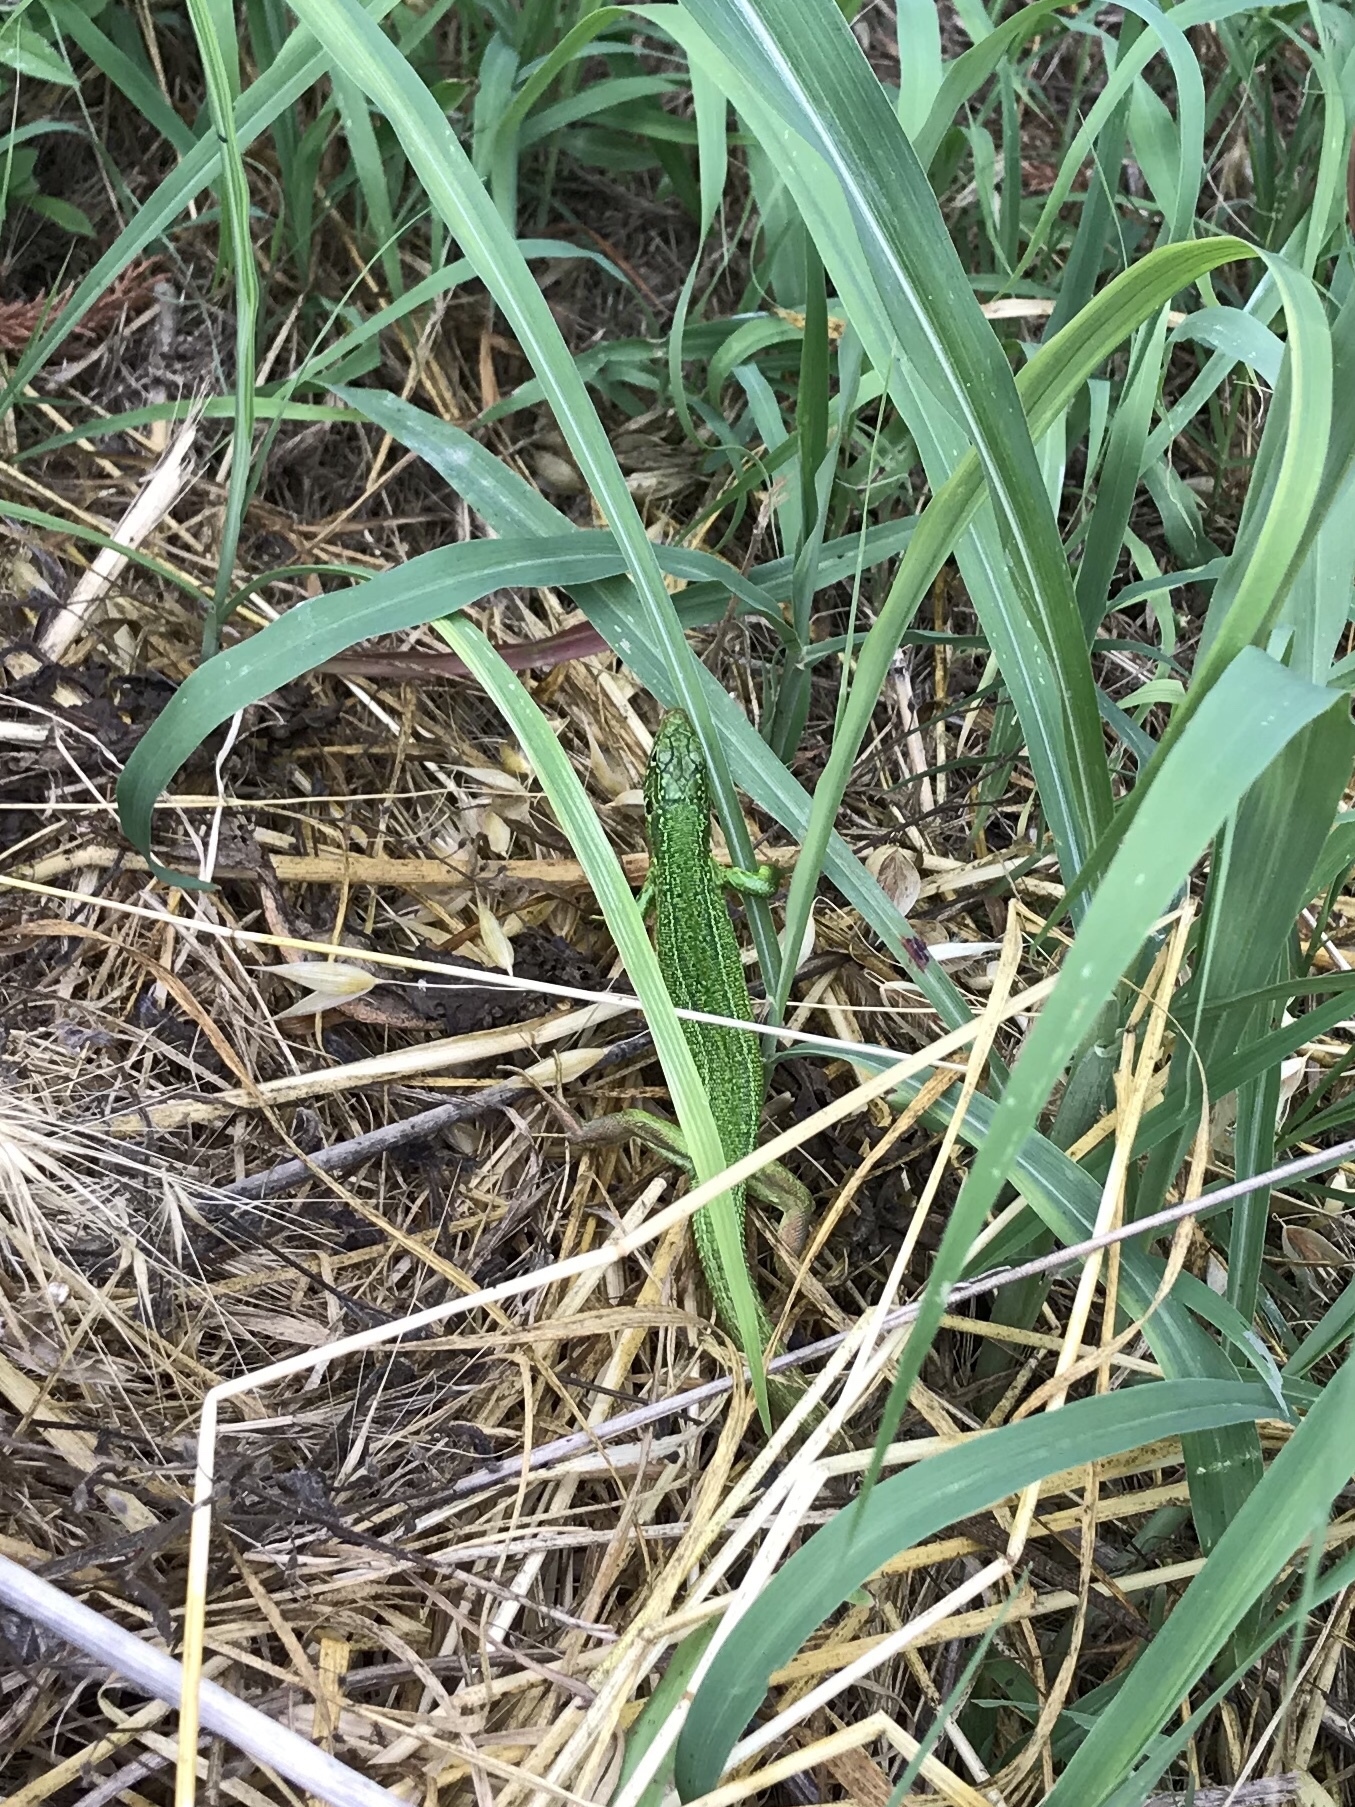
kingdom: Animalia
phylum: Chordata
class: Squamata
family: Lacertidae
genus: Lacerta
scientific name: Lacerta bilineata
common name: Western green lizard
